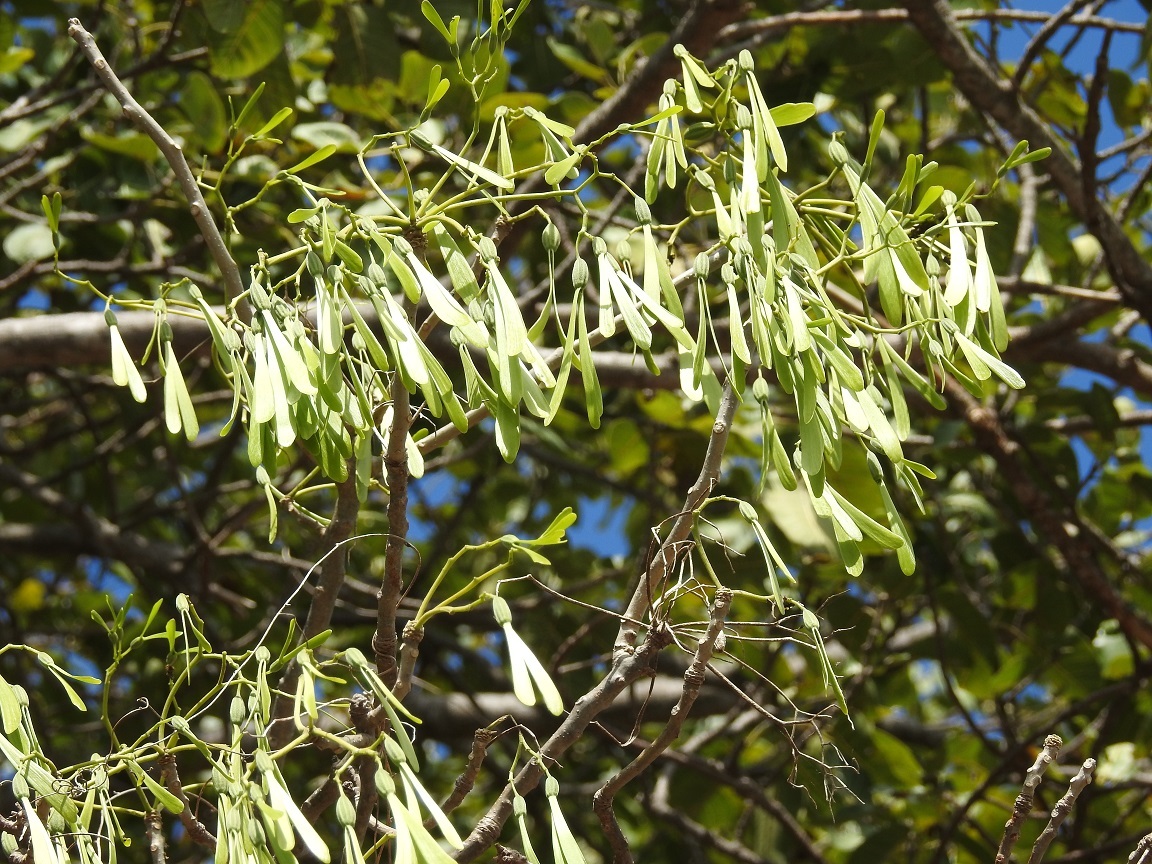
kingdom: Plantae
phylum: Tracheophyta
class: Magnoliopsida
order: Laurales
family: Hernandiaceae
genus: Gyrocarpus
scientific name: Gyrocarpus mocinoi
